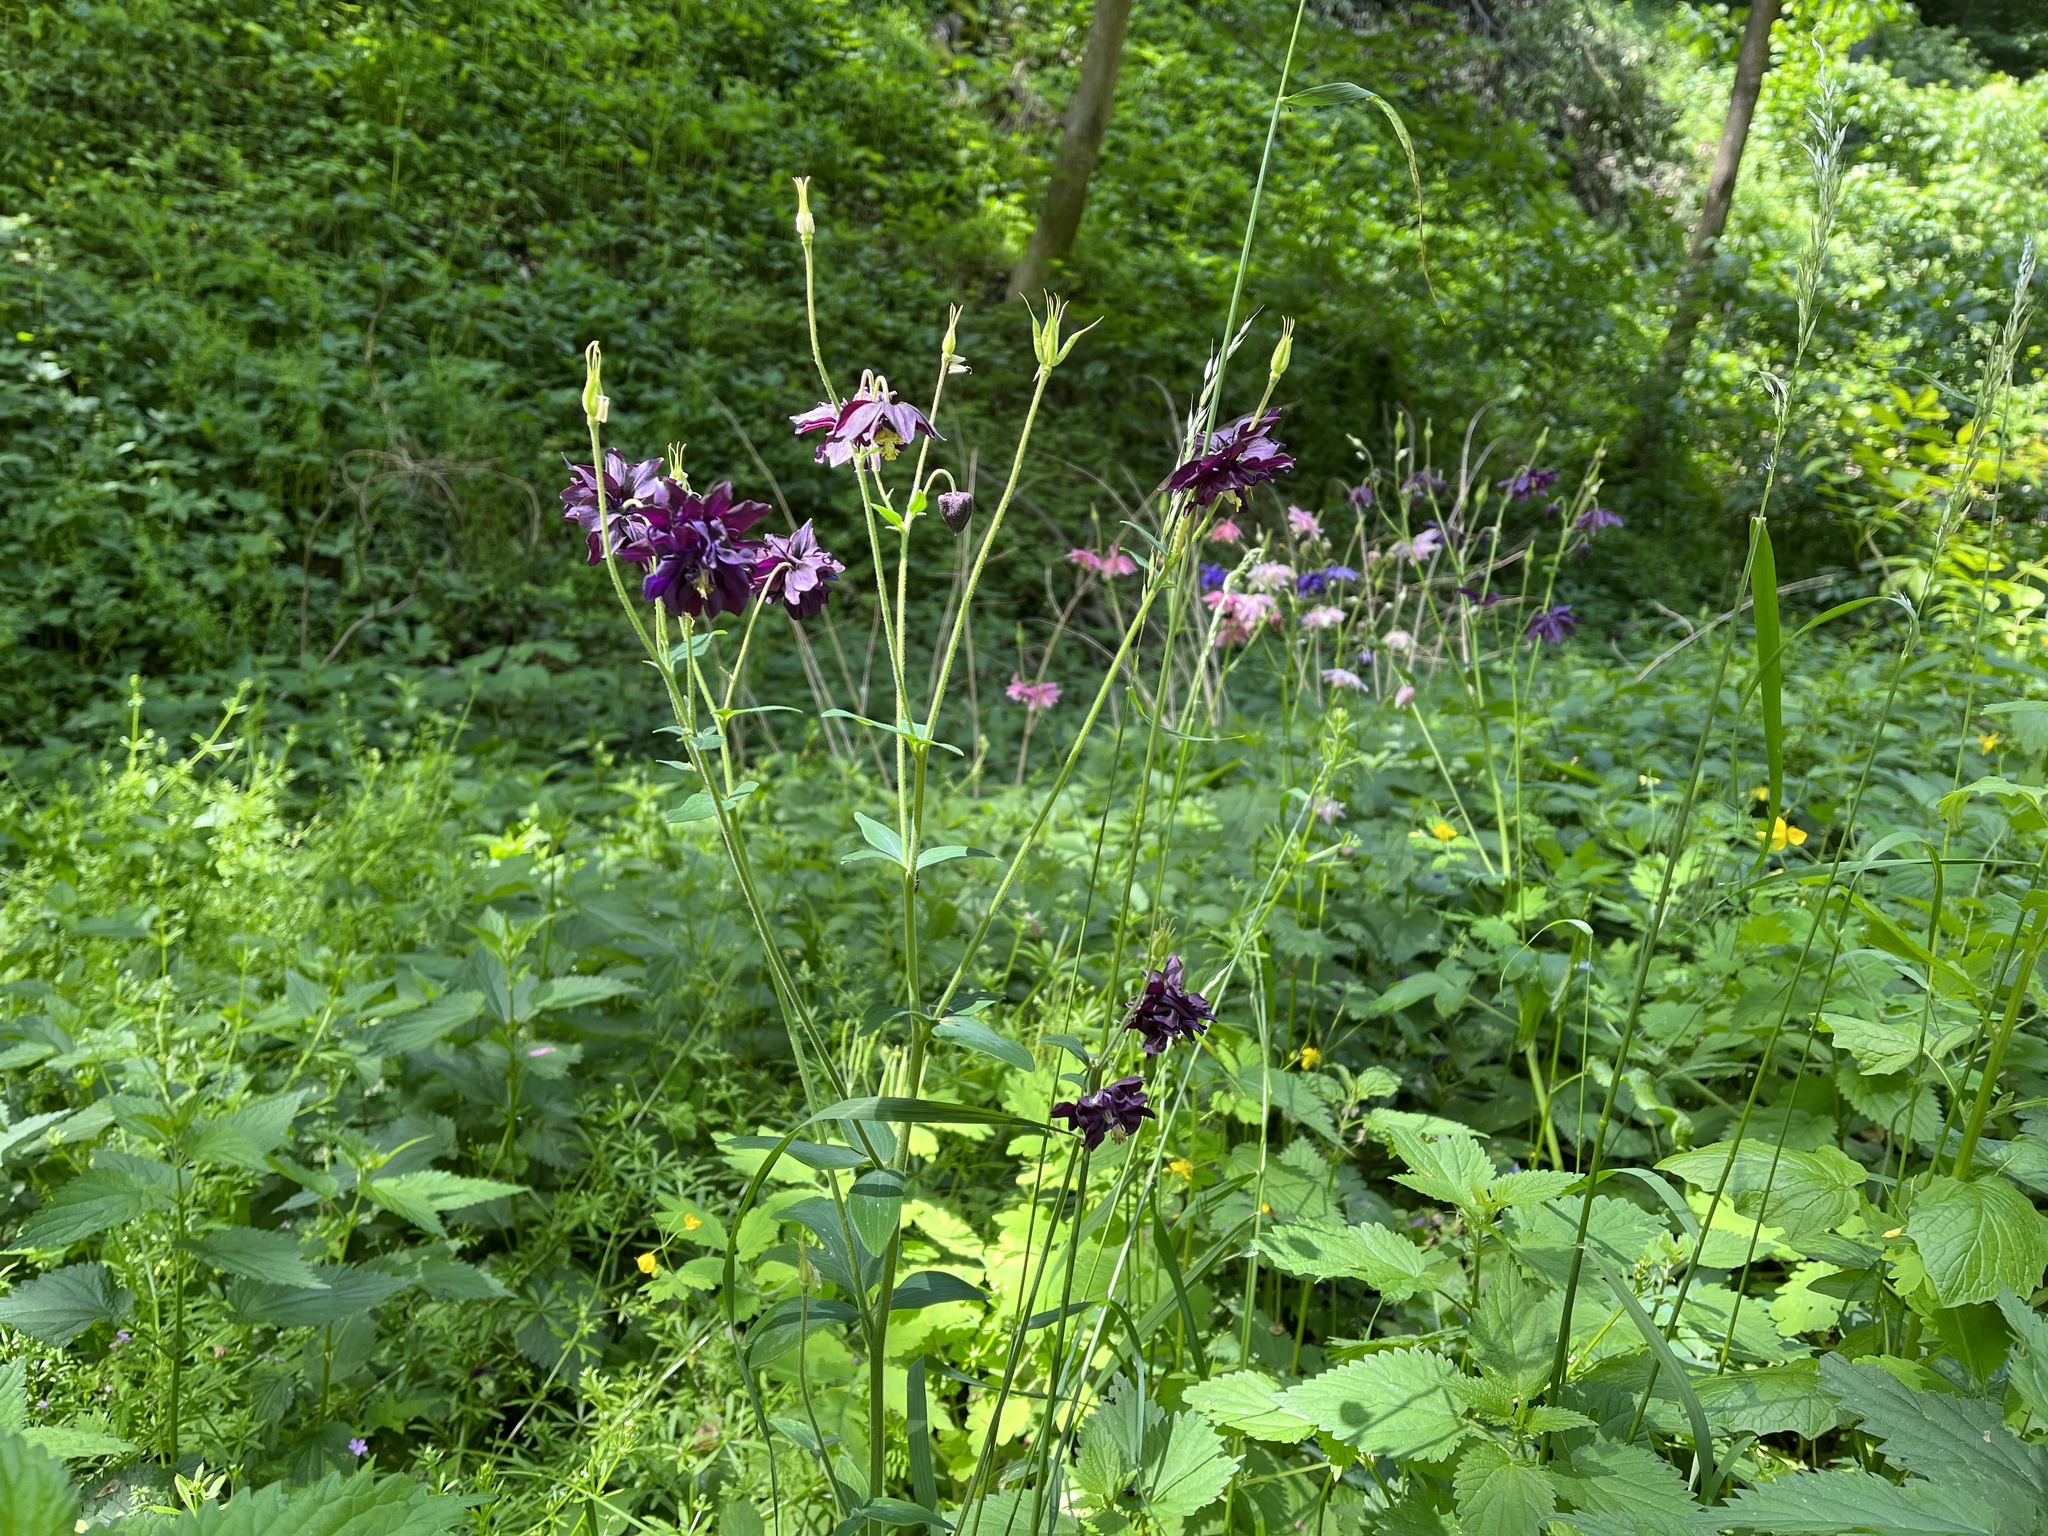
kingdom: Plantae
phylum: Tracheophyta
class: Magnoliopsida
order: Ranunculales
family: Ranunculaceae
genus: Aquilegia
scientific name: Aquilegia vulgaris
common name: Columbine
